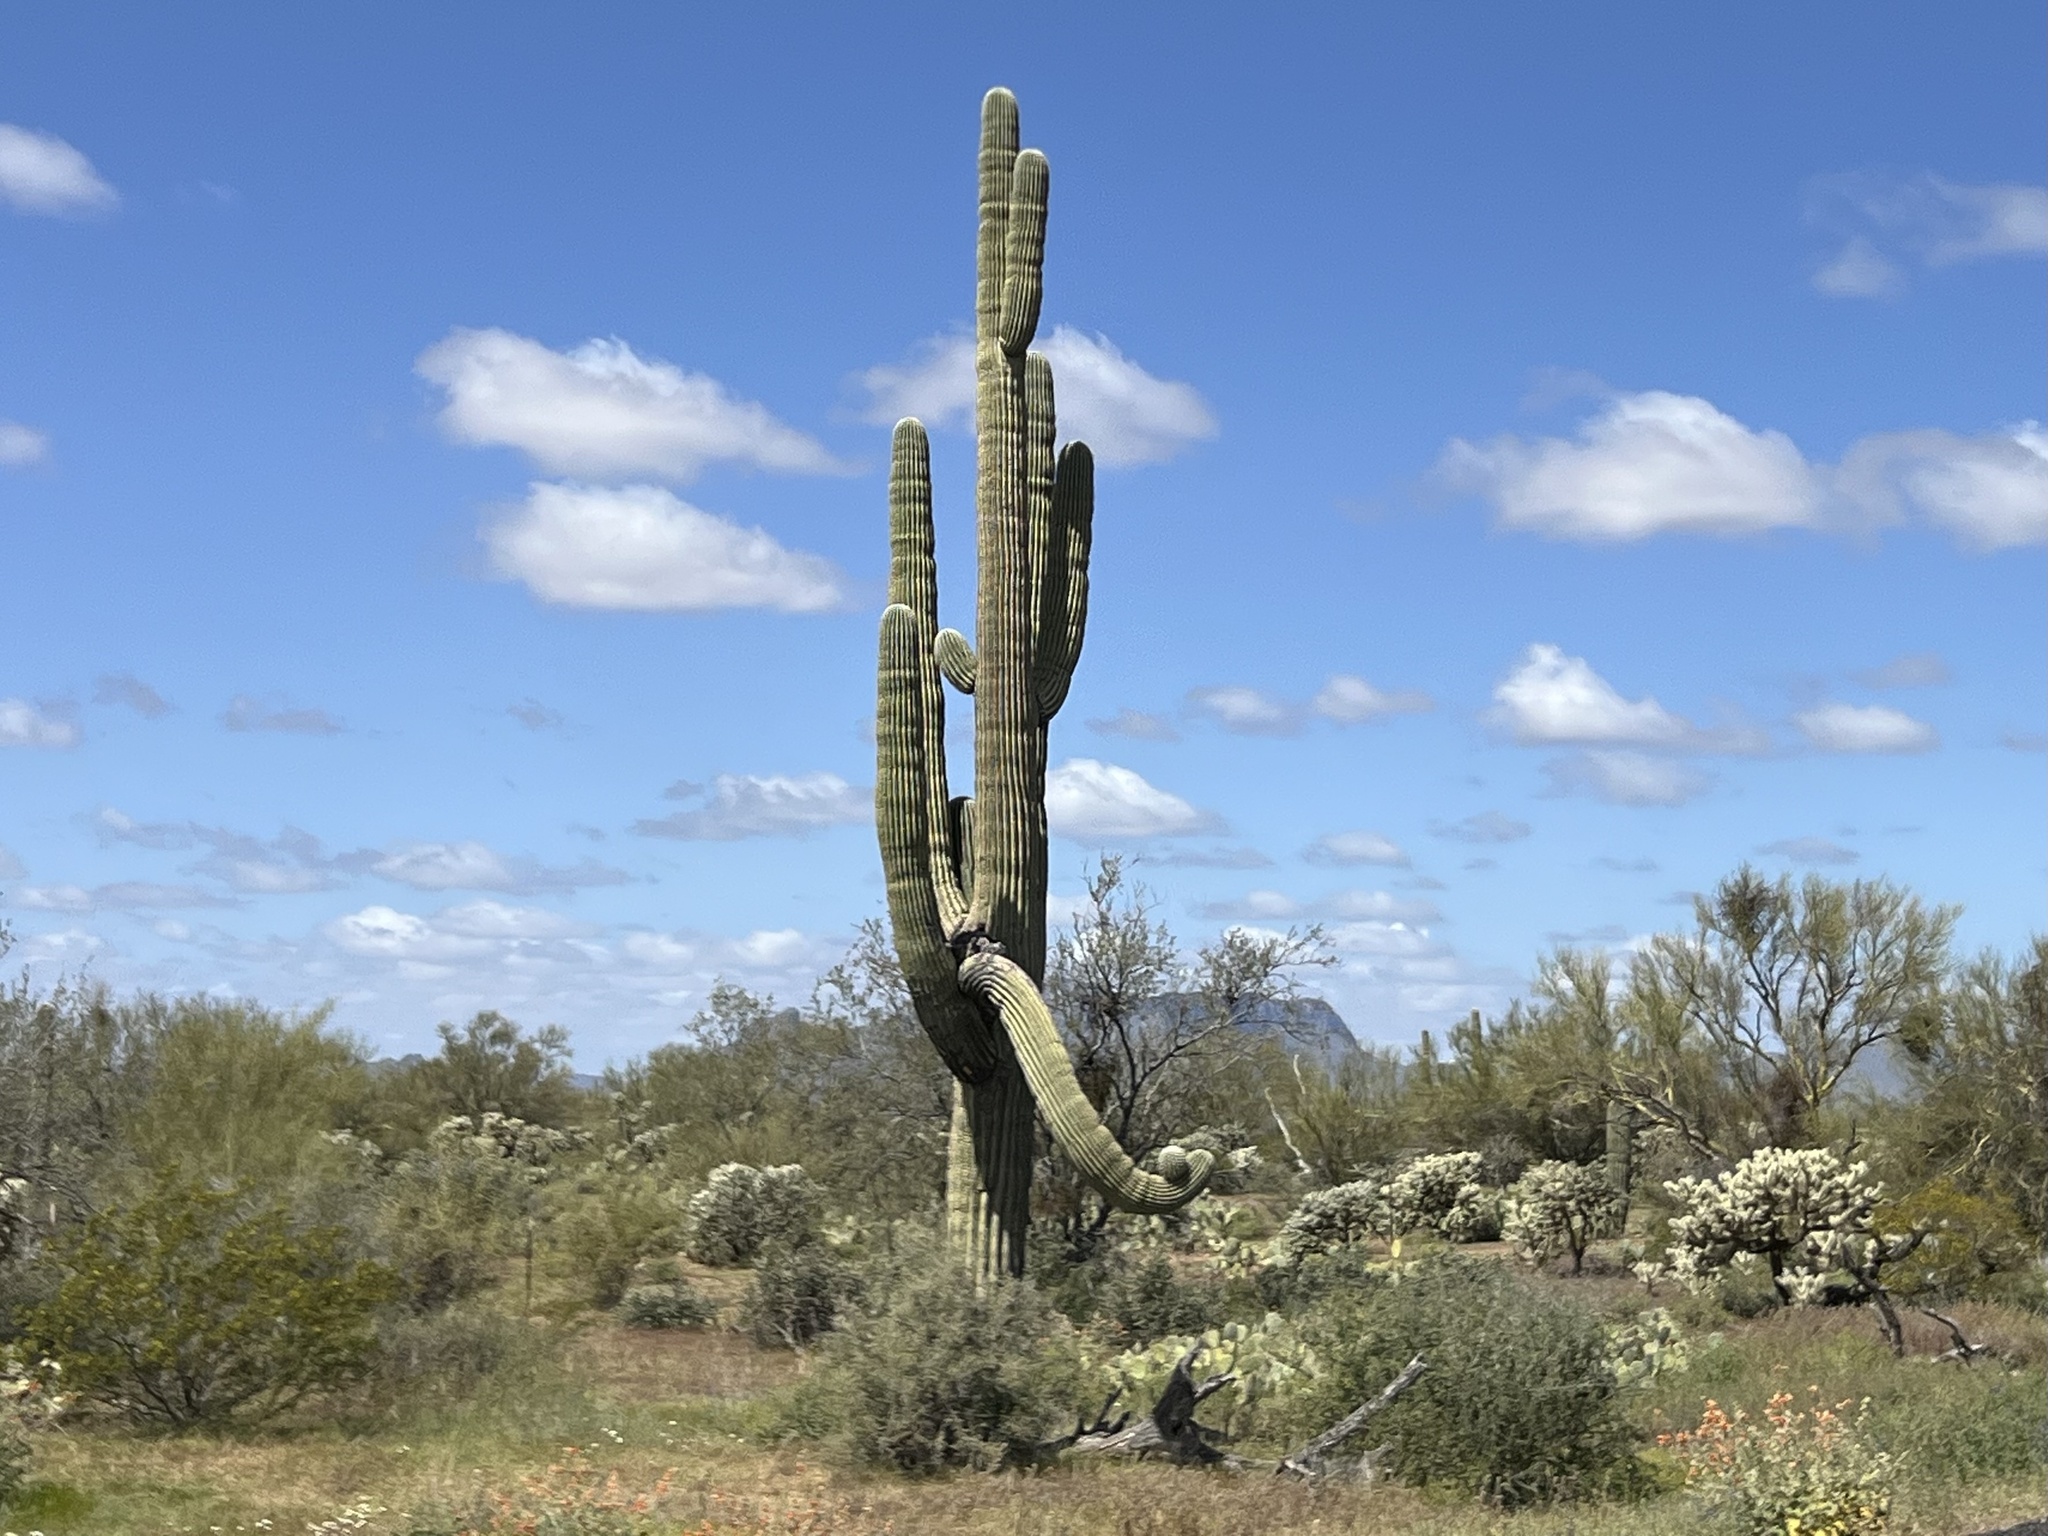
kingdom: Plantae
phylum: Tracheophyta
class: Magnoliopsida
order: Caryophyllales
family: Cactaceae
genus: Carnegiea
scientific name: Carnegiea gigantea
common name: Saguaro
